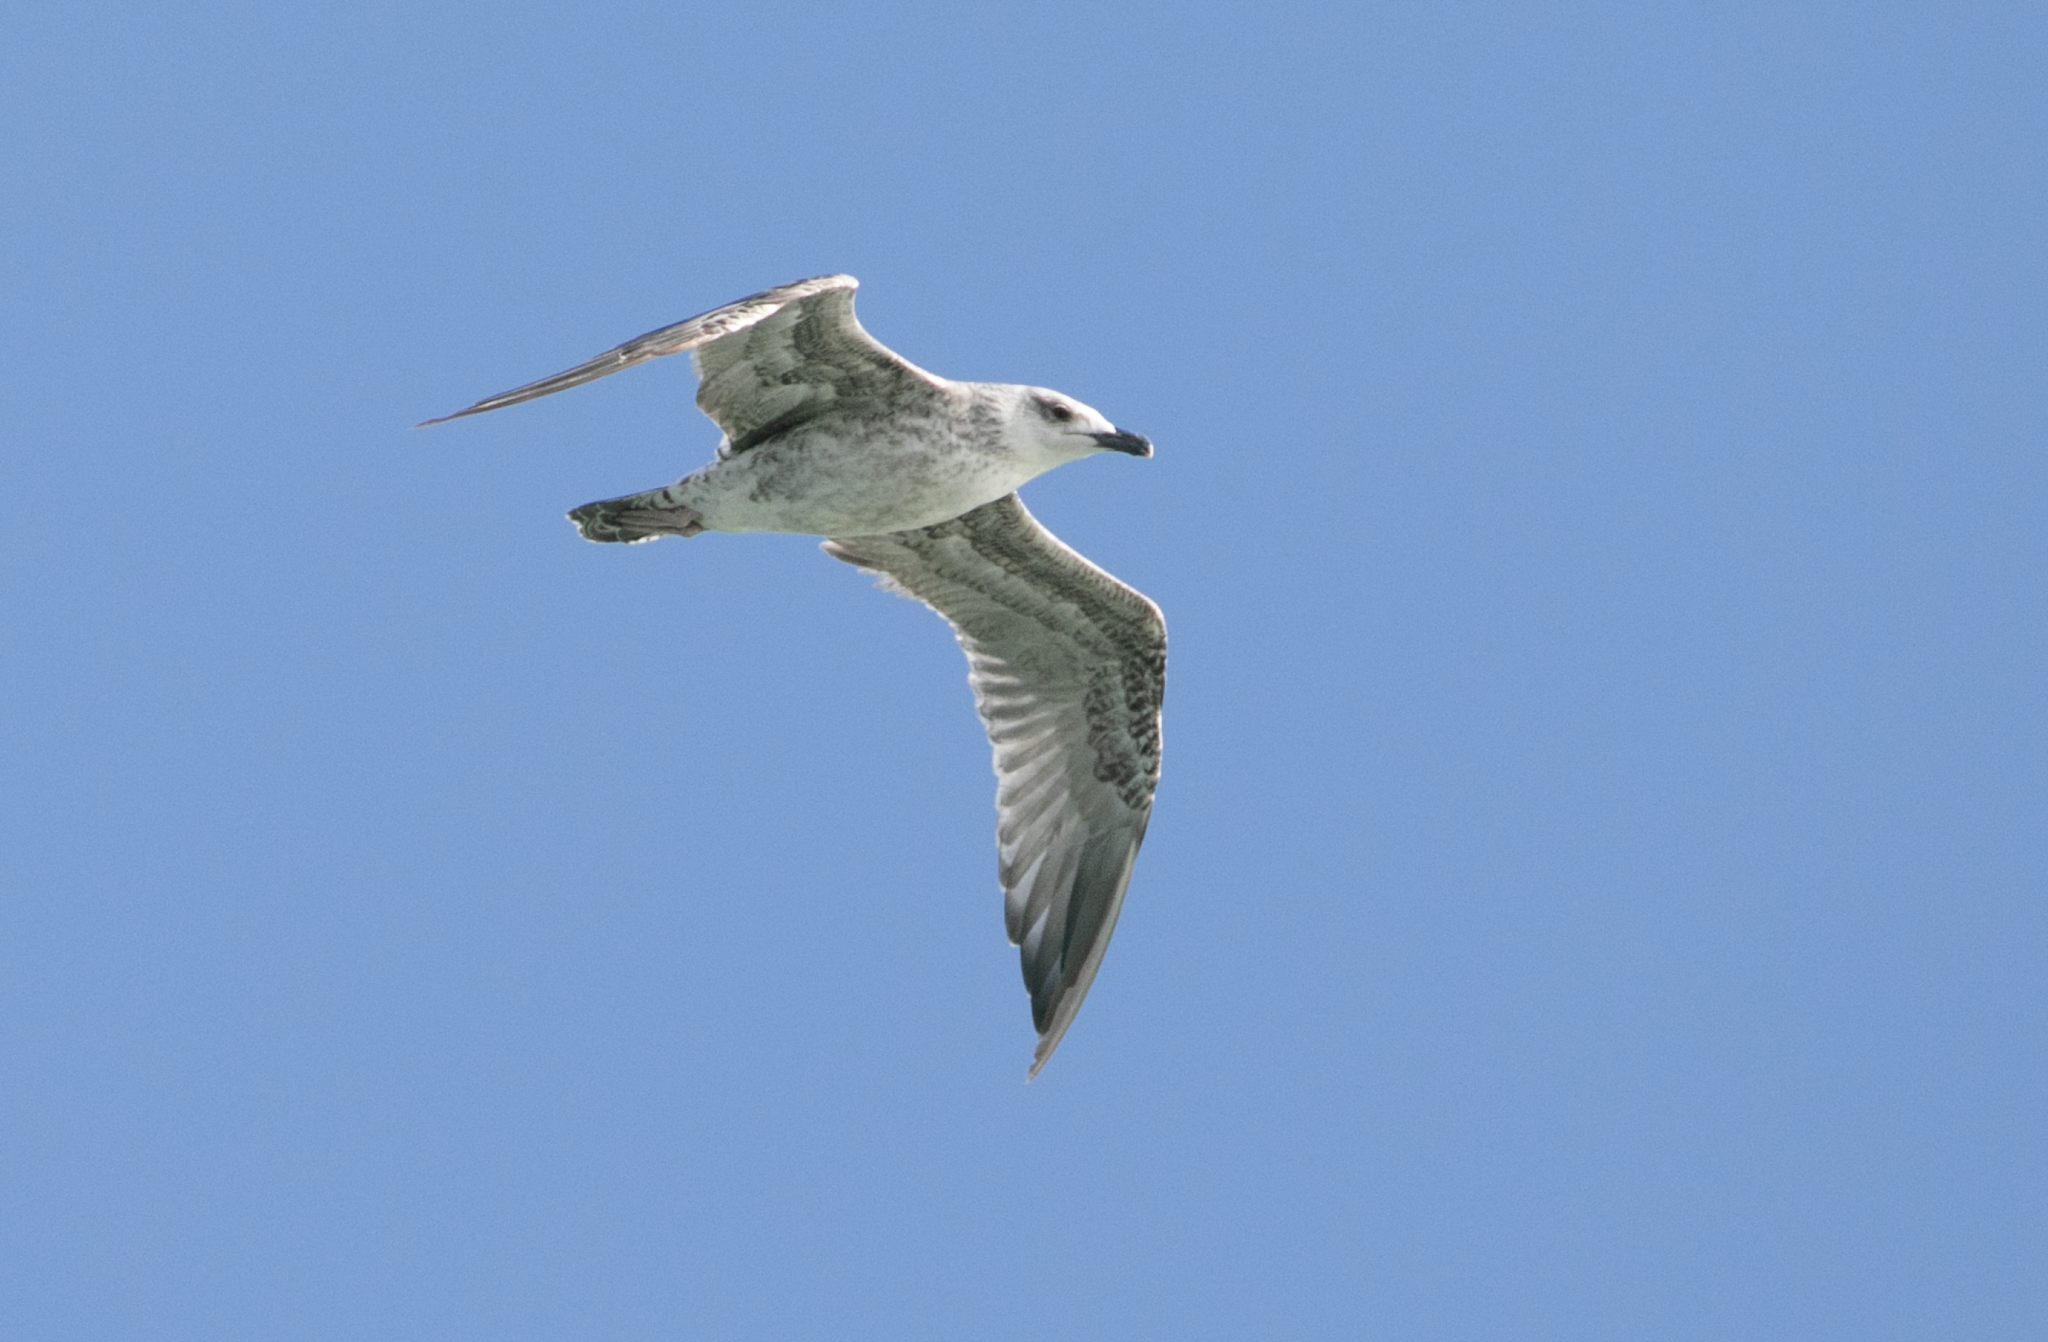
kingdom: Animalia
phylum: Chordata
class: Aves
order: Charadriiformes
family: Laridae
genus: Larus
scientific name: Larus michahellis
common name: Yellow-legged gull
